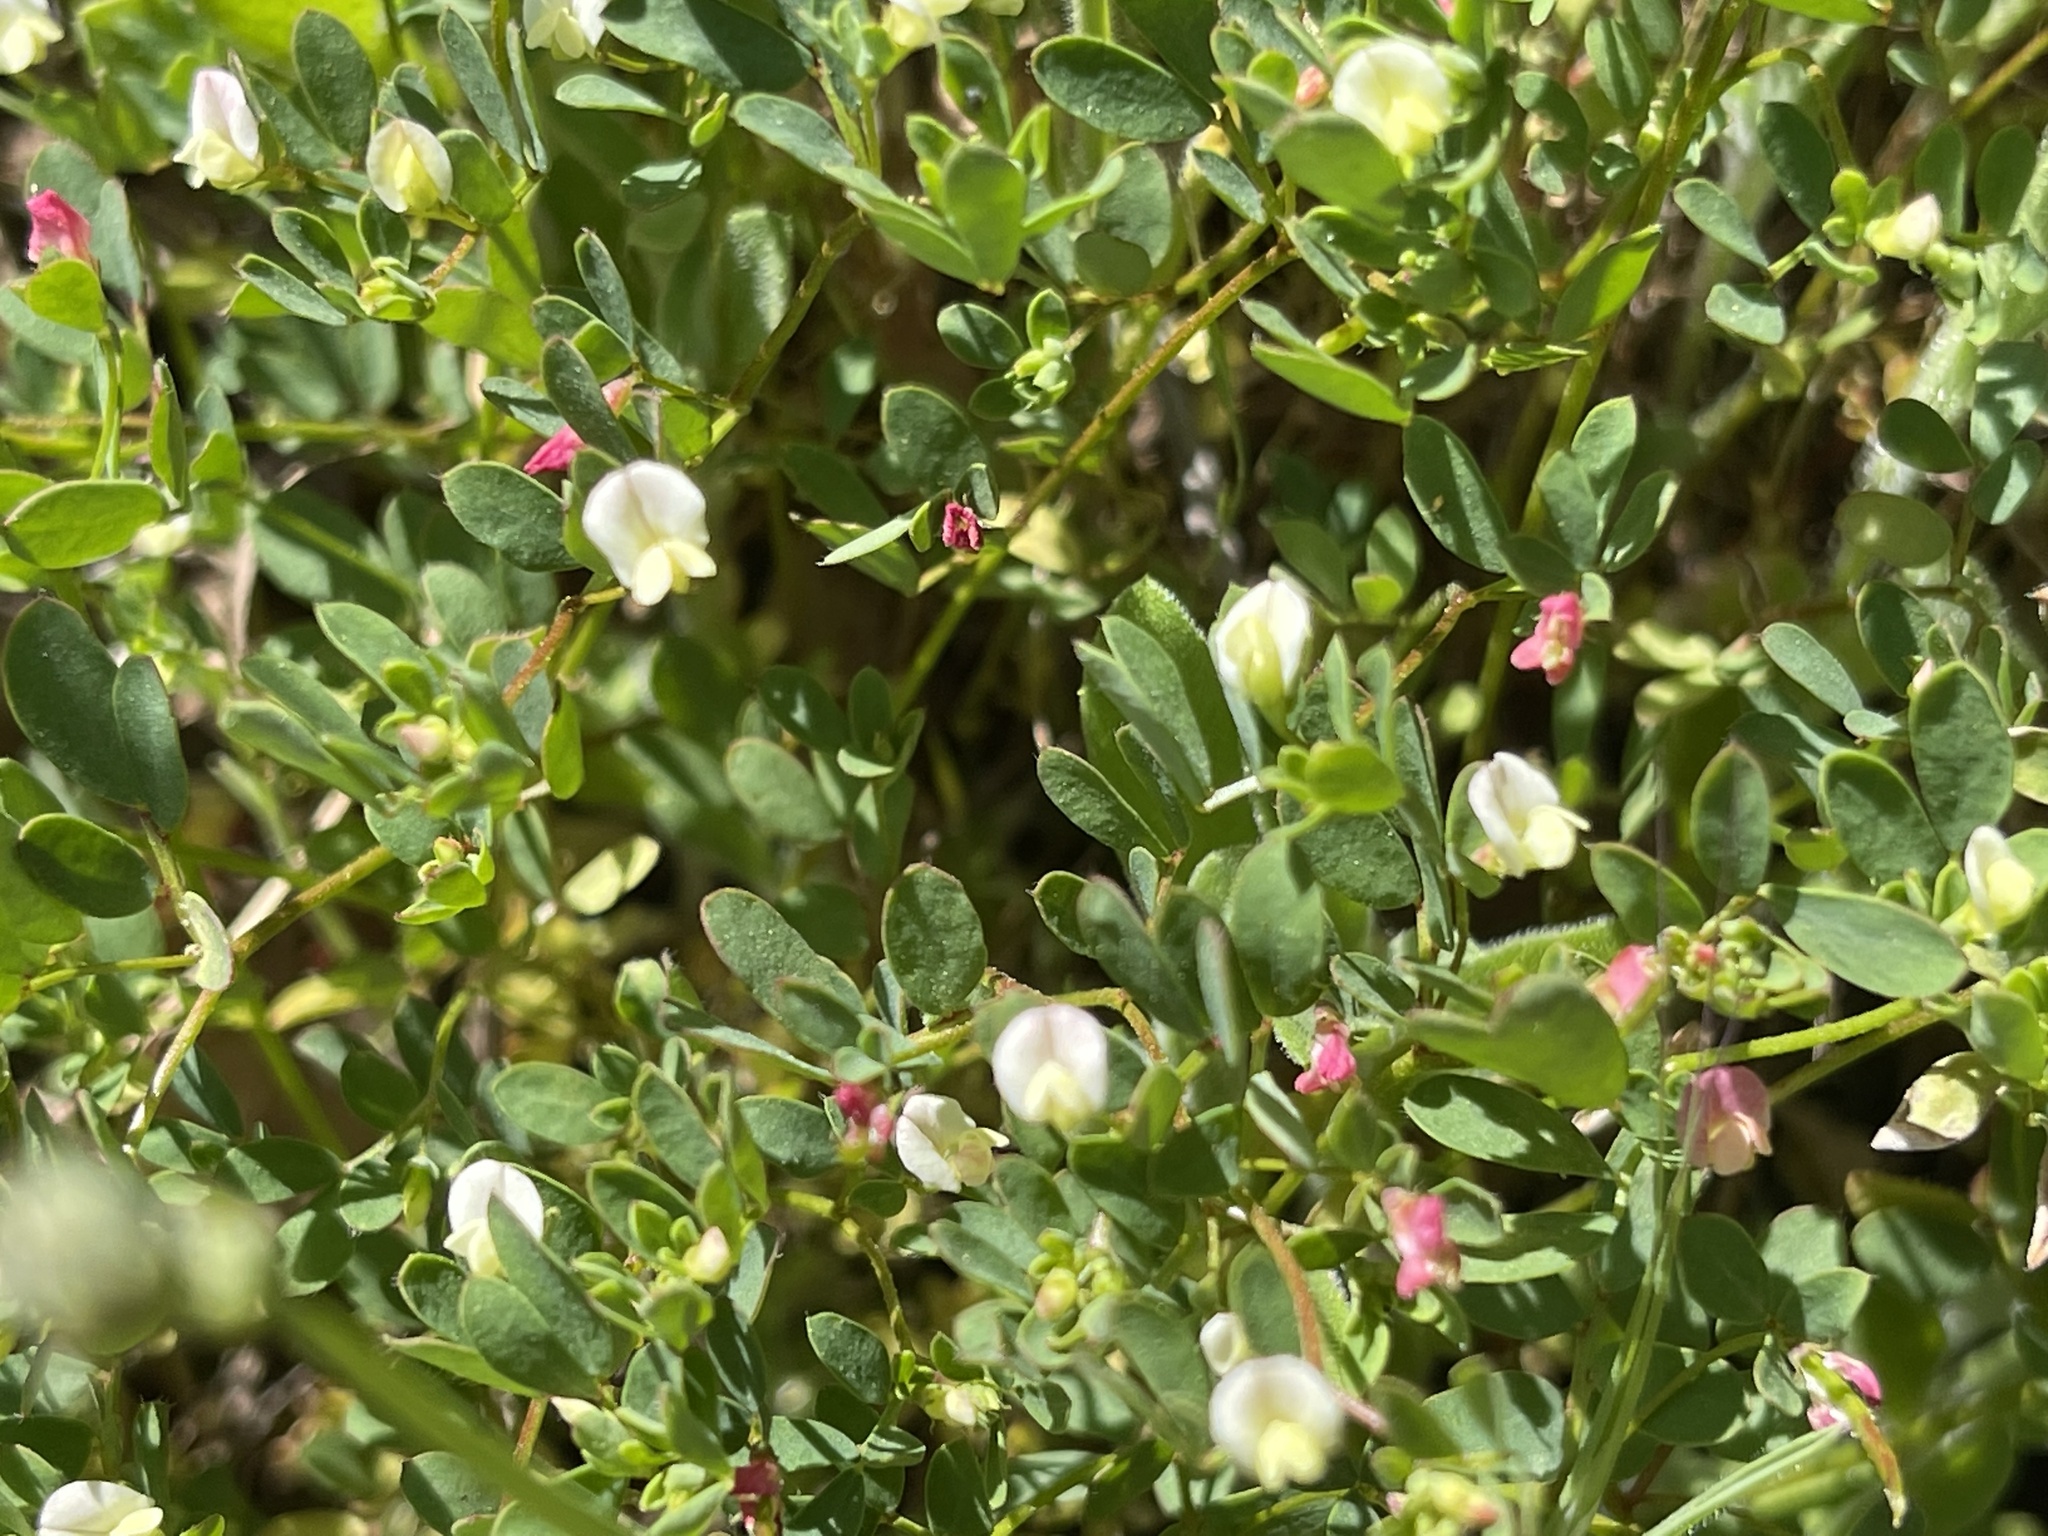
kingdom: Plantae
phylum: Tracheophyta
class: Magnoliopsida
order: Fabales
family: Fabaceae
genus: Acmispon
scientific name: Acmispon parviflorus
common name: Desert deer-vetch
